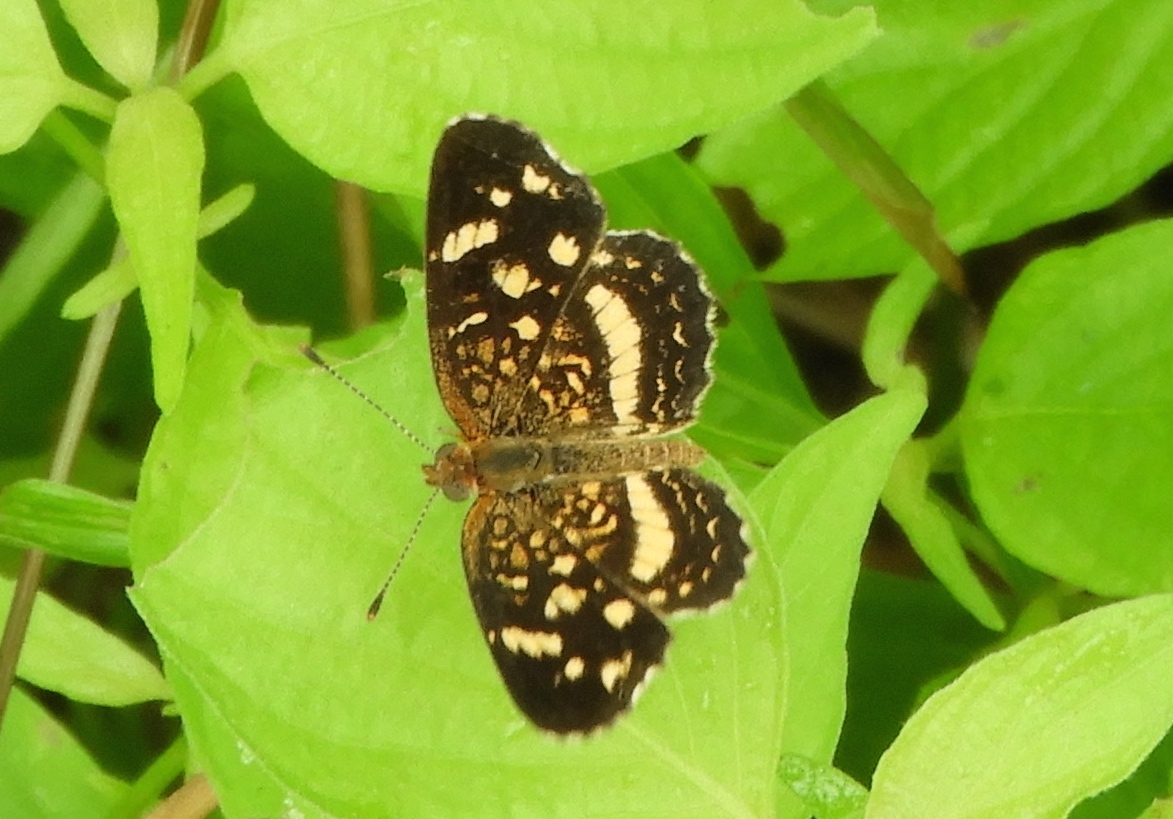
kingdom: Animalia
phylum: Arthropoda
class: Insecta
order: Lepidoptera
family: Nymphalidae
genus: Anthanassa
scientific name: Anthanassa tulcis
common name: Pale-banded crescent
